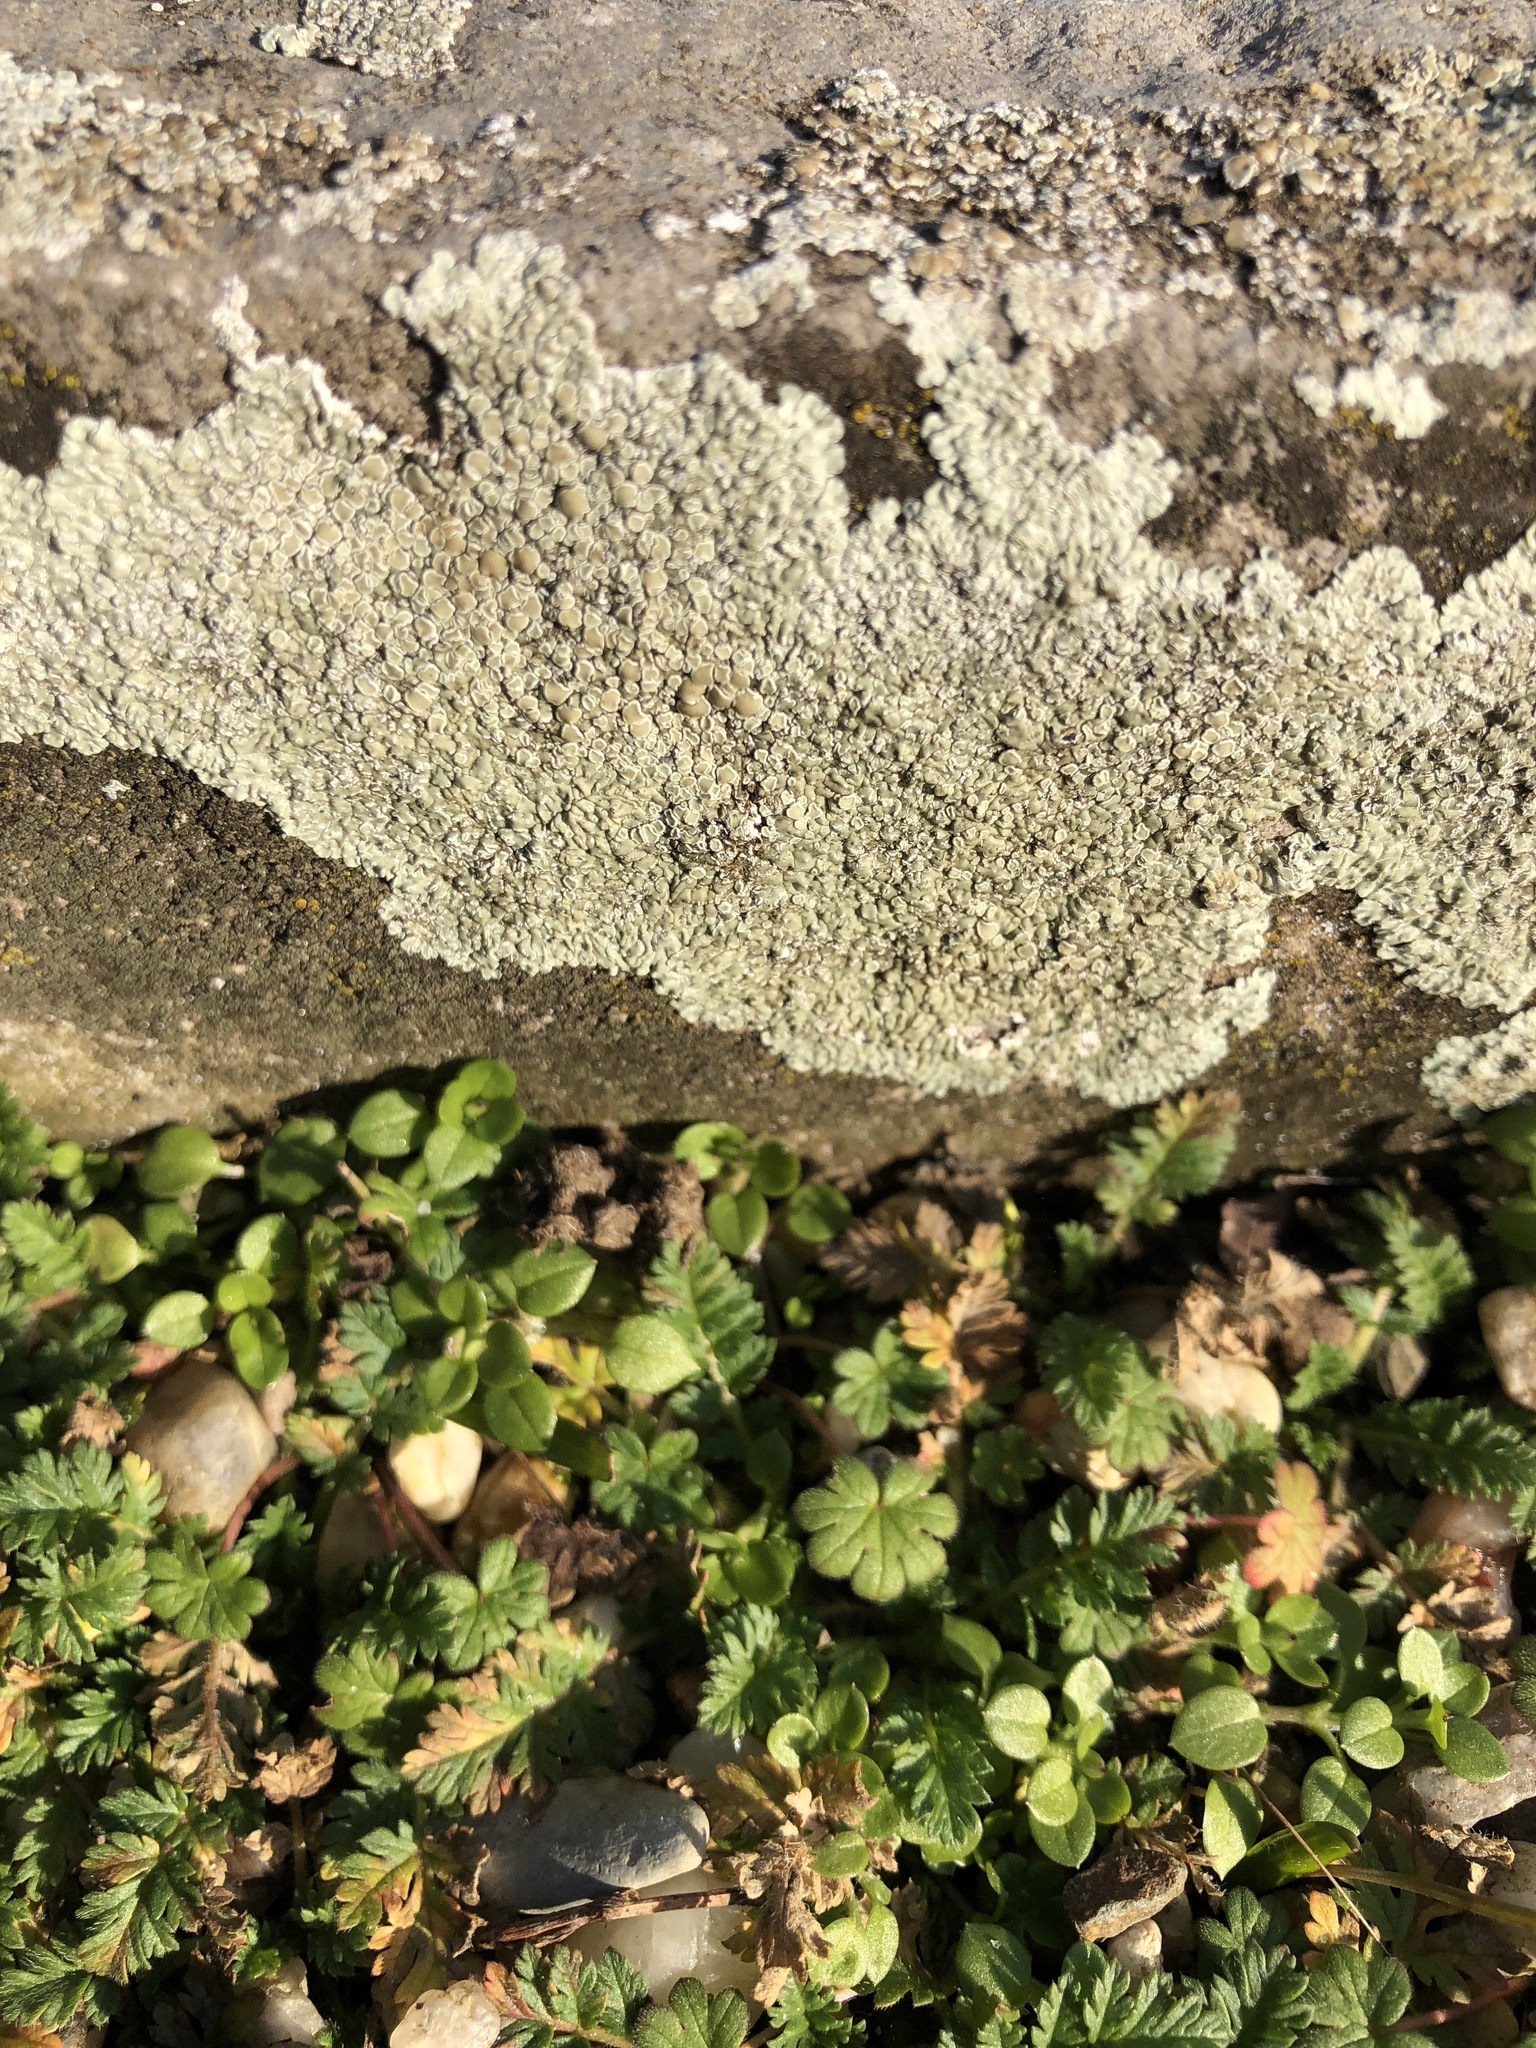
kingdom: Fungi
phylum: Ascomycota
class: Lecanoromycetes
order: Lecanorales
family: Lecanoraceae
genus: Protoparmeliopsis
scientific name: Protoparmeliopsis muralis
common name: Stonewall rim lichen
